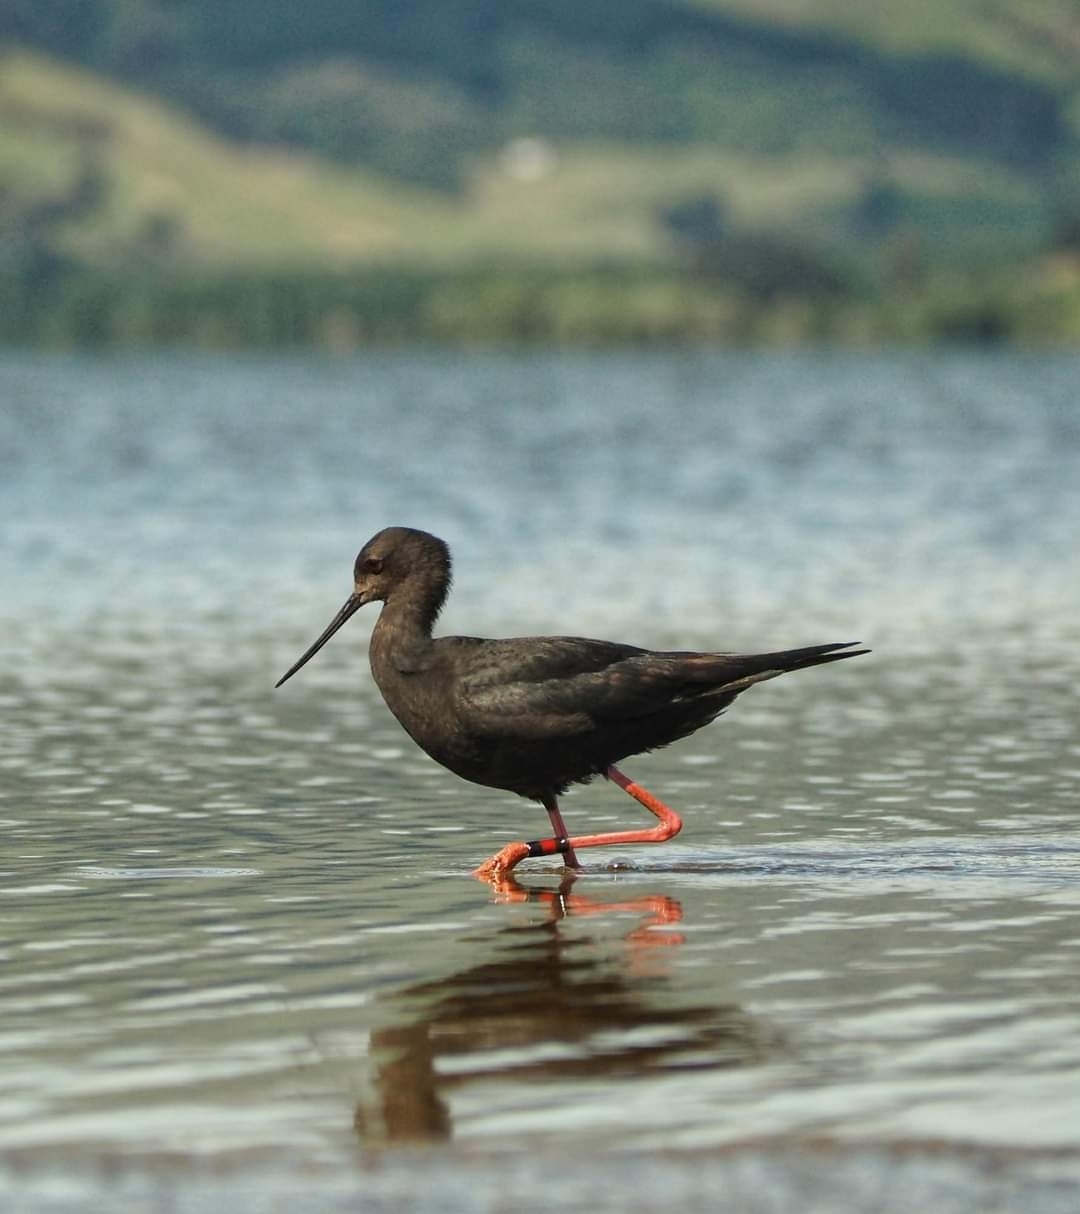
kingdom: Animalia
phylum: Chordata
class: Aves
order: Charadriiformes
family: Recurvirostridae
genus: Himantopus
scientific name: Himantopus novaezelandiae
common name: Black stilt
